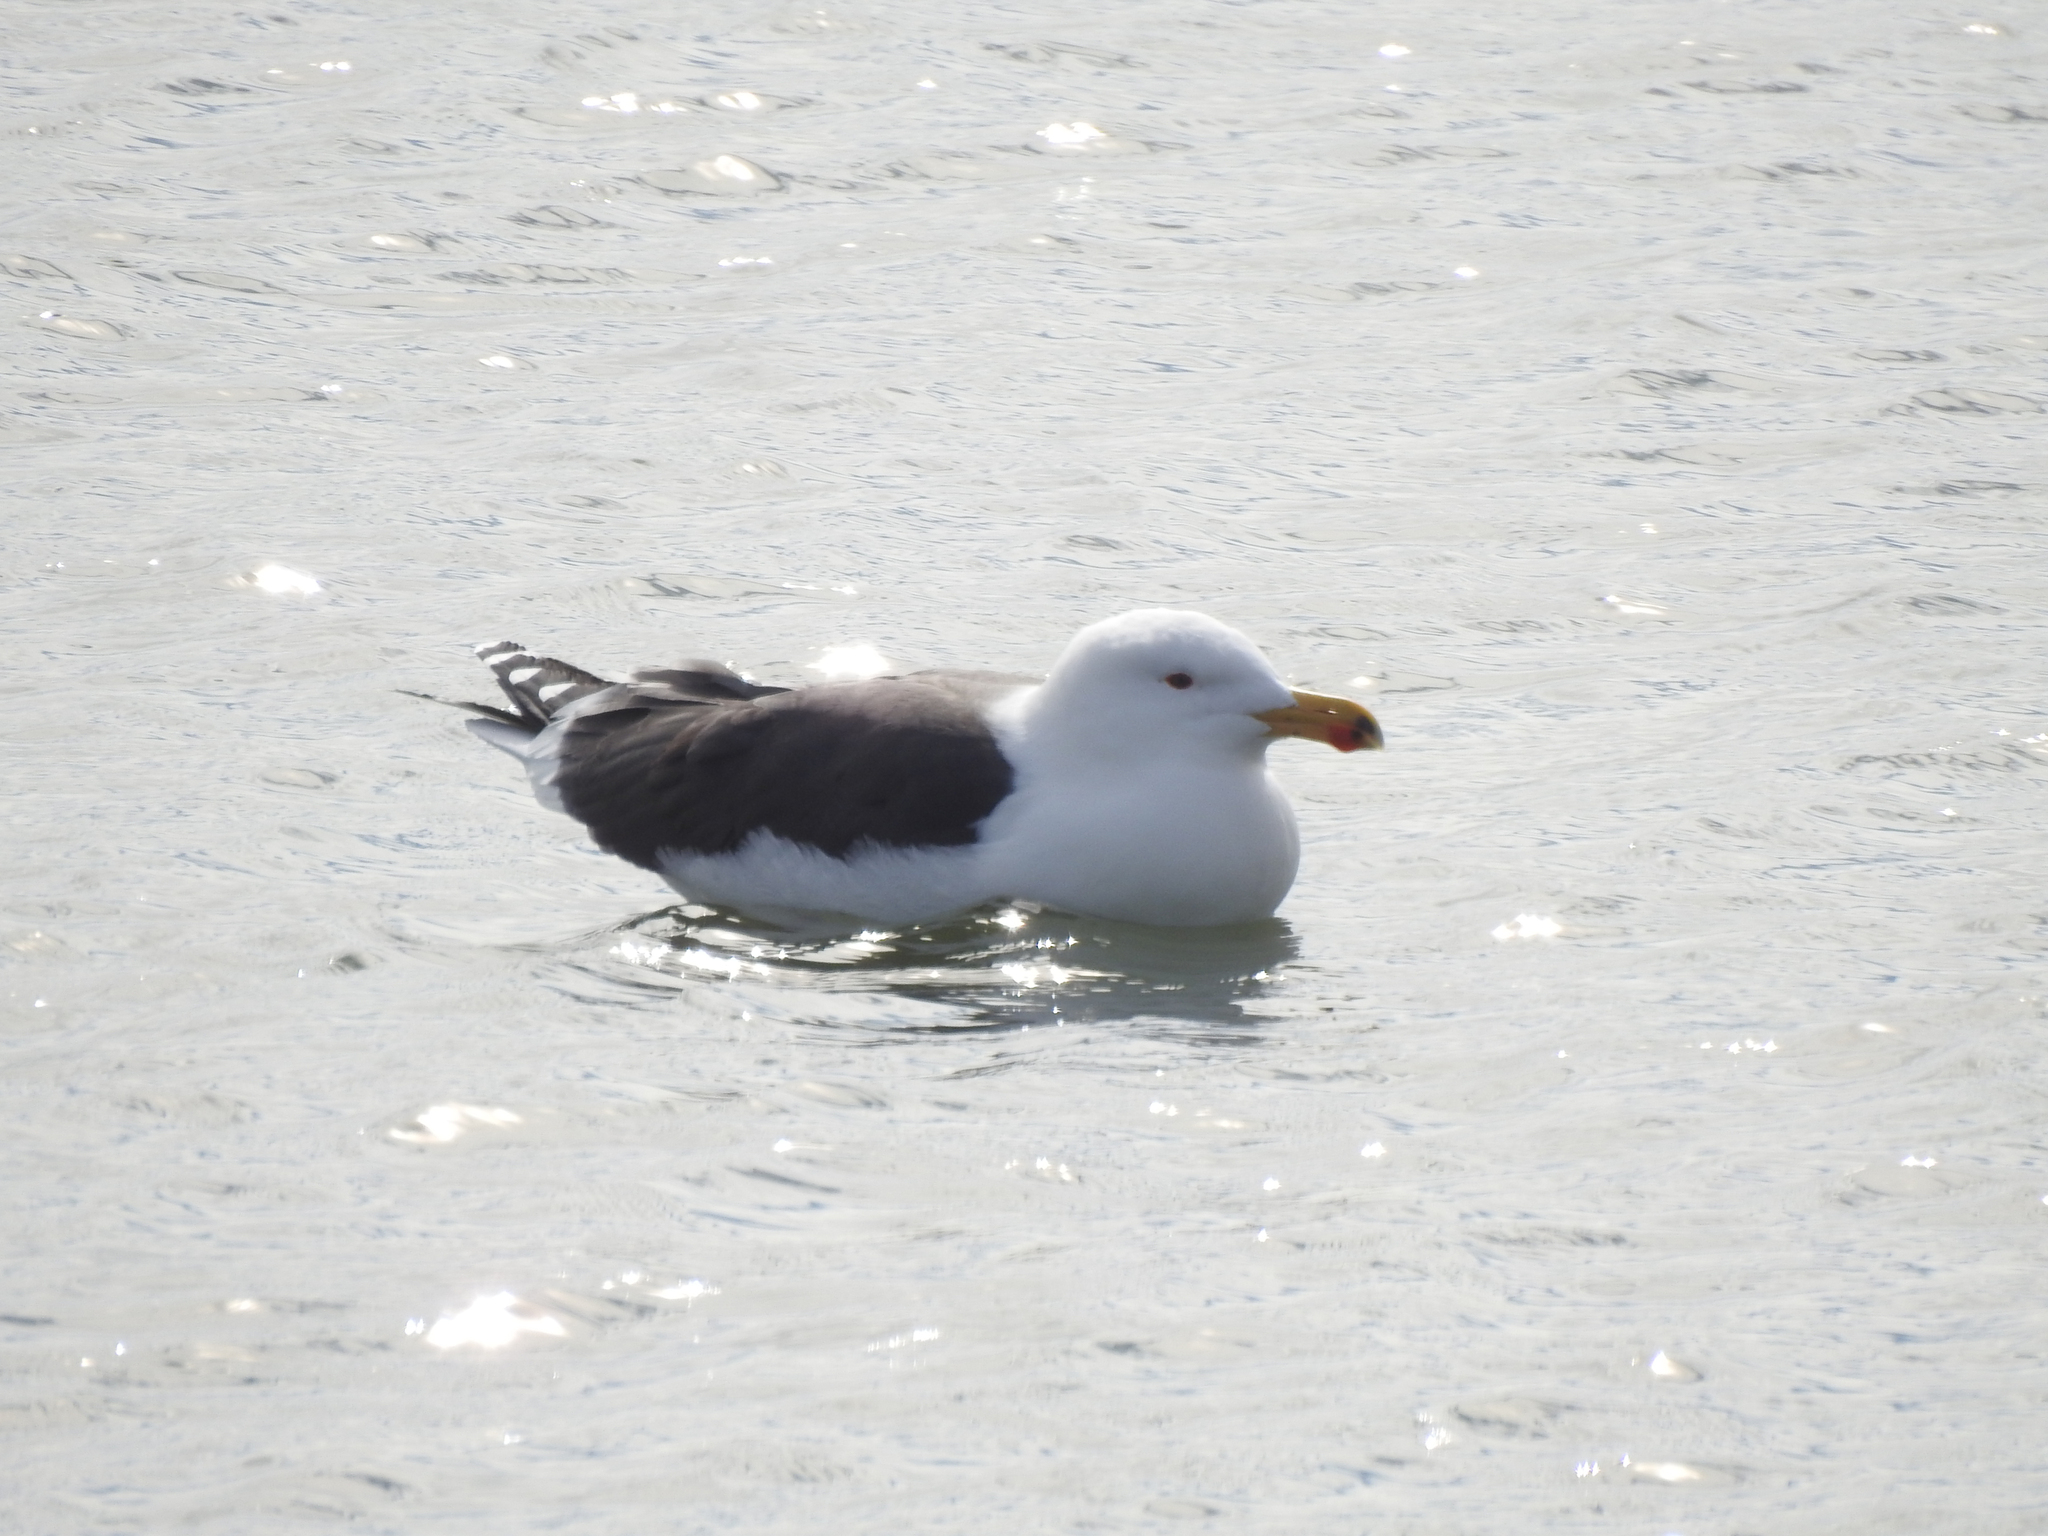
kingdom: Animalia
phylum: Chordata
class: Aves
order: Charadriiformes
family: Laridae
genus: Larus
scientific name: Larus marinus
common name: Great black-backed gull
